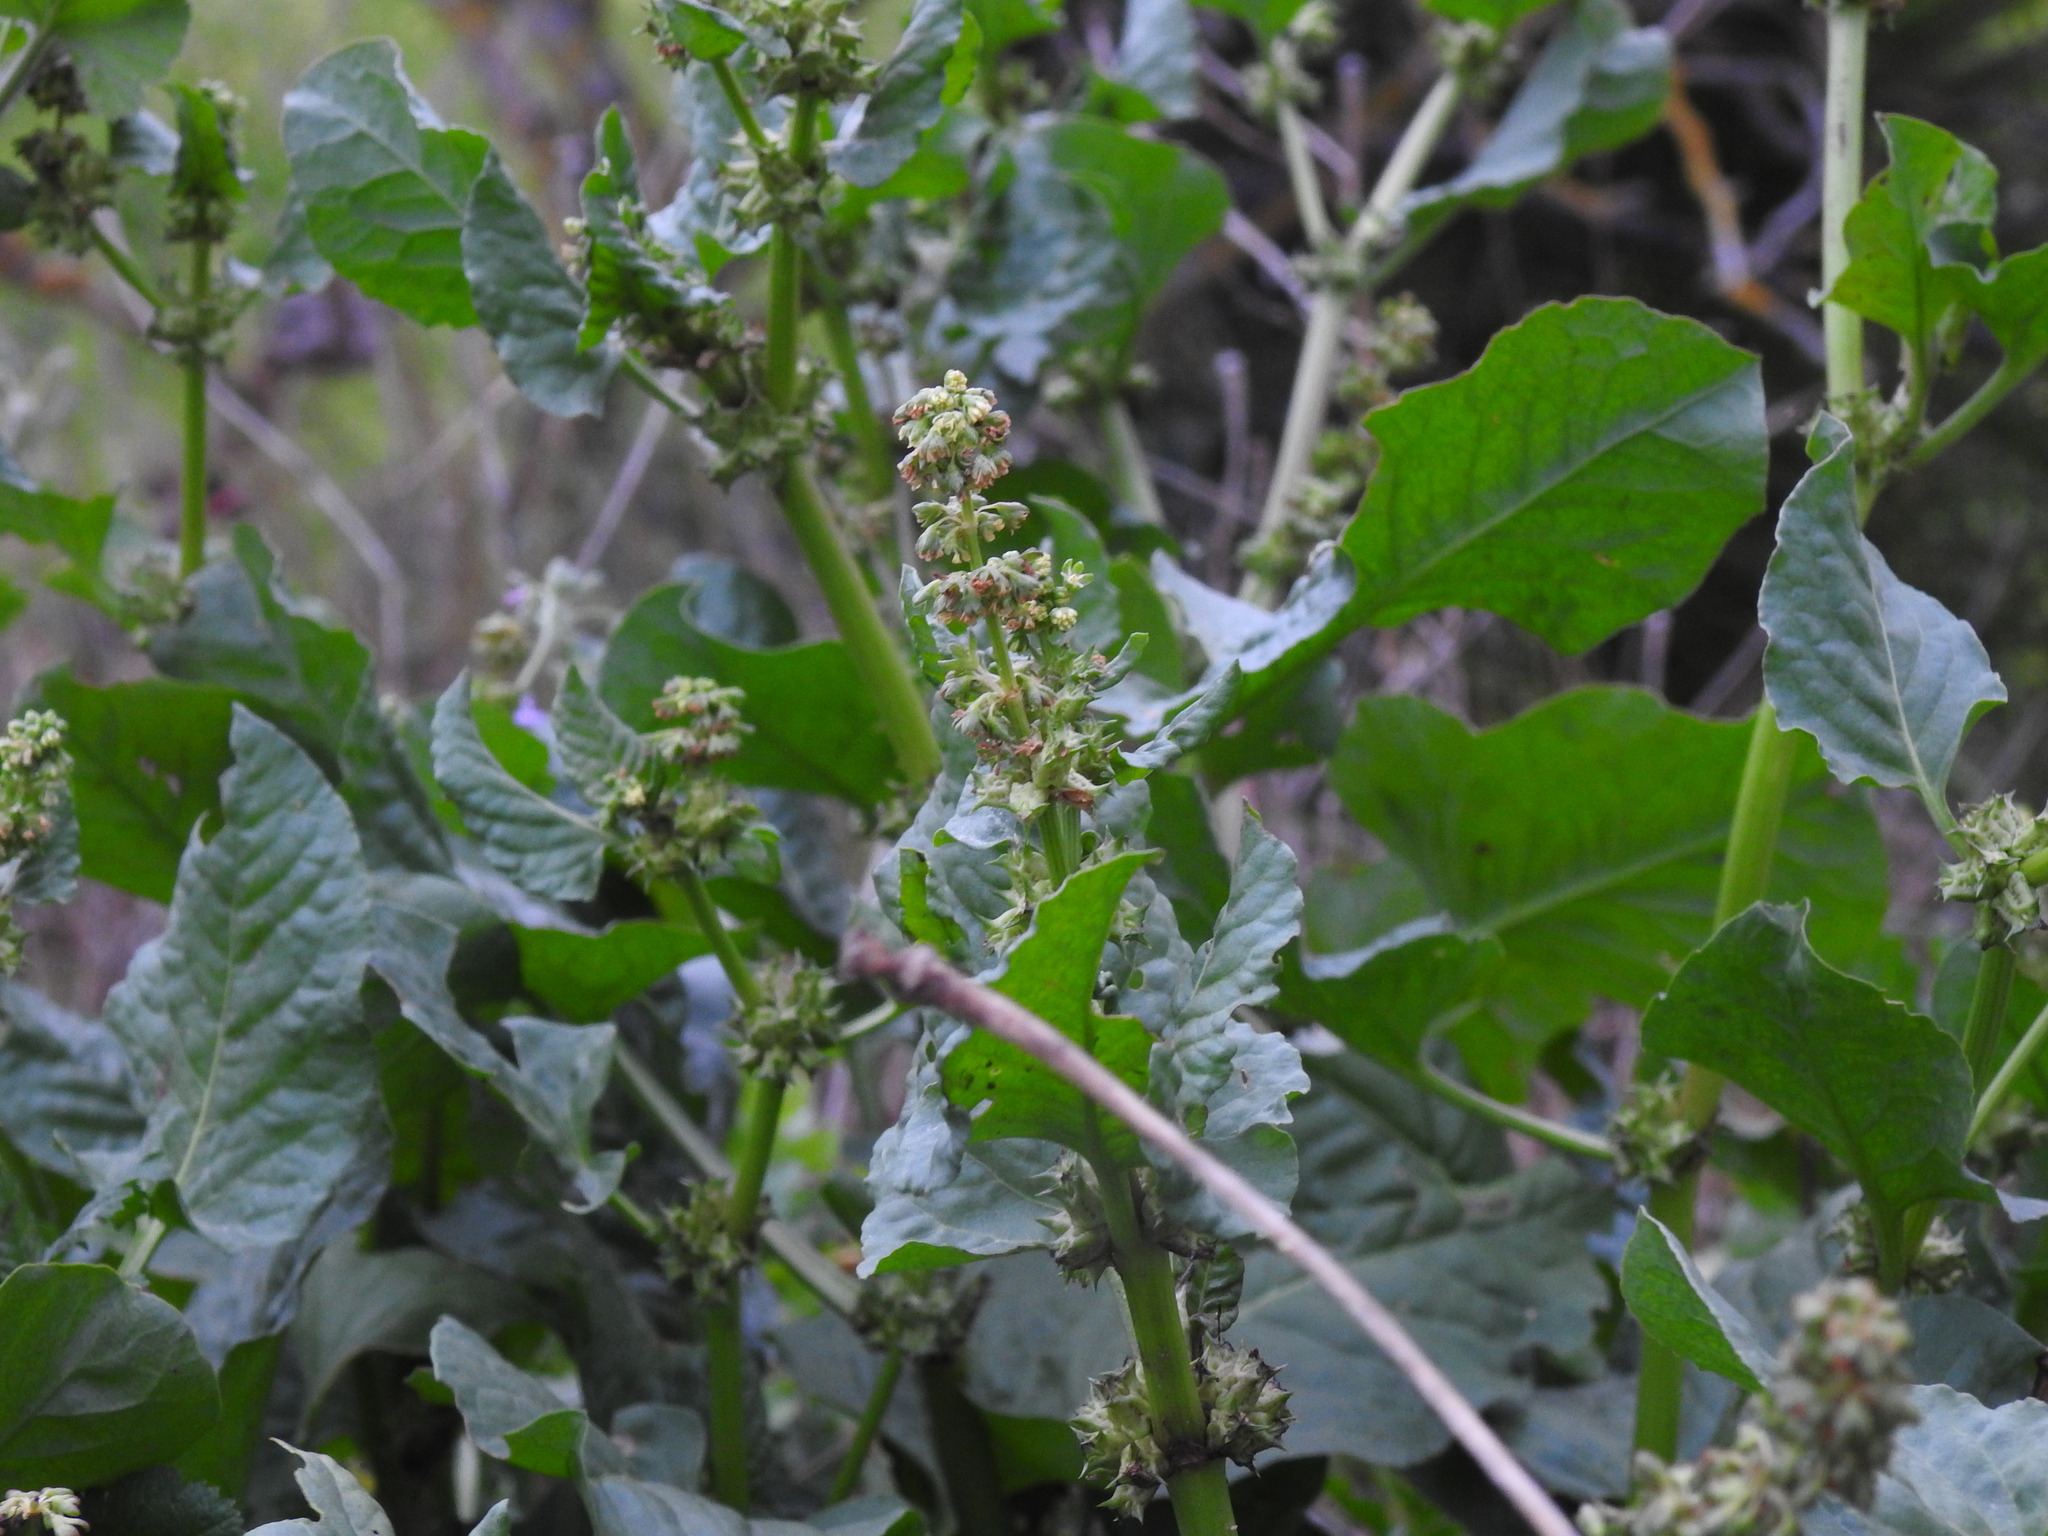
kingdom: Plantae
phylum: Tracheophyta
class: Magnoliopsida
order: Caryophyllales
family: Polygonaceae
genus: Rumex
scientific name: Rumex spinosus
